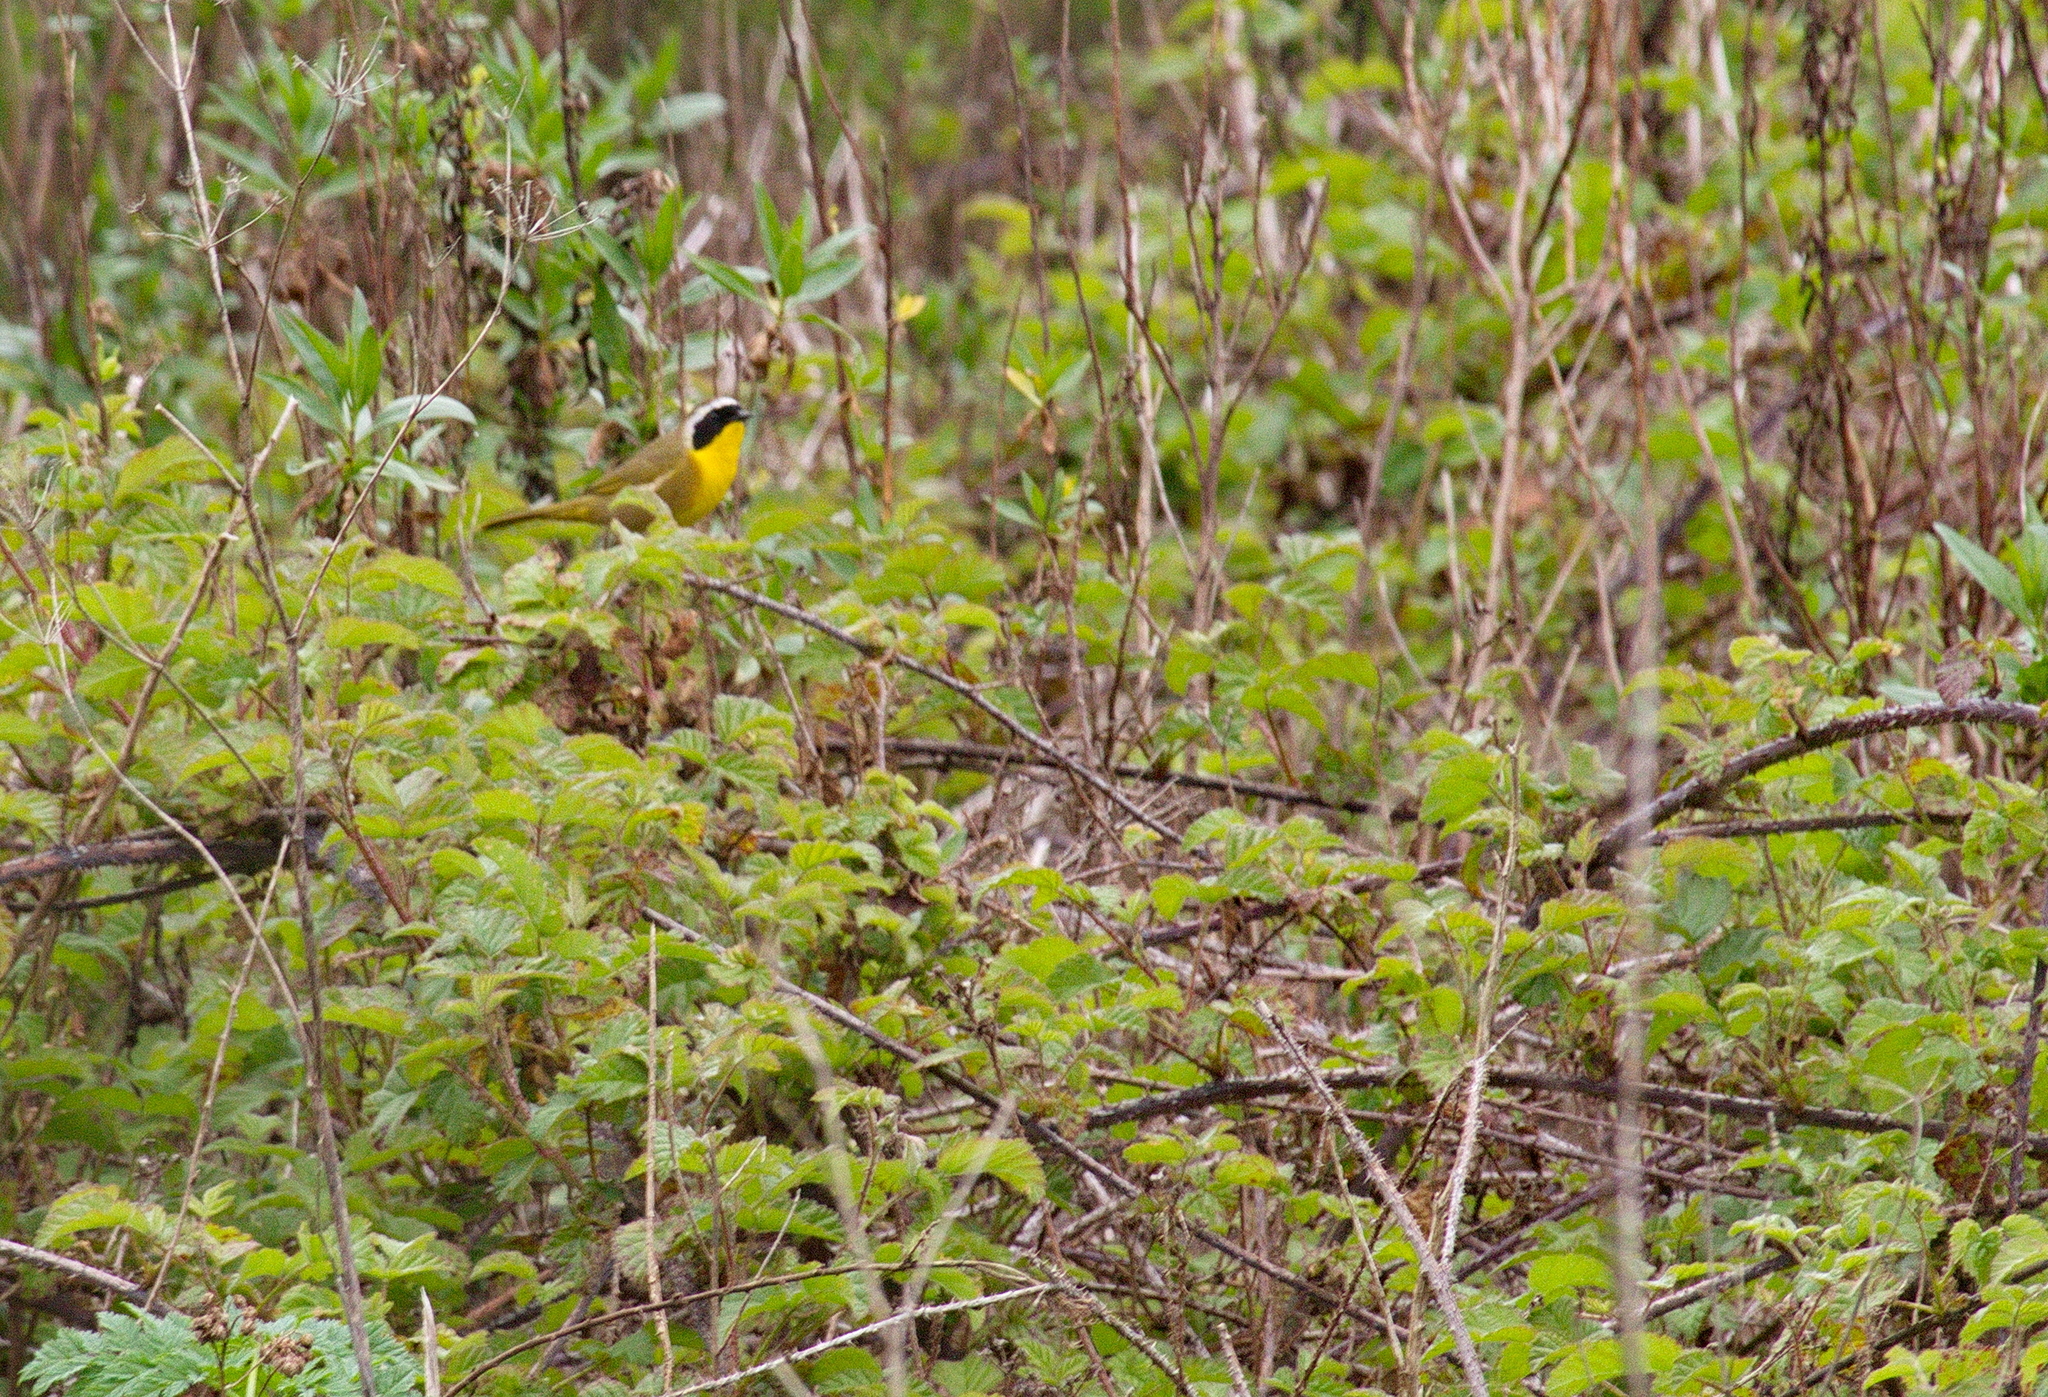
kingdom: Animalia
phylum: Chordata
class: Aves
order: Passeriformes
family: Parulidae
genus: Geothlypis
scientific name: Geothlypis trichas
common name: Common yellowthroat
